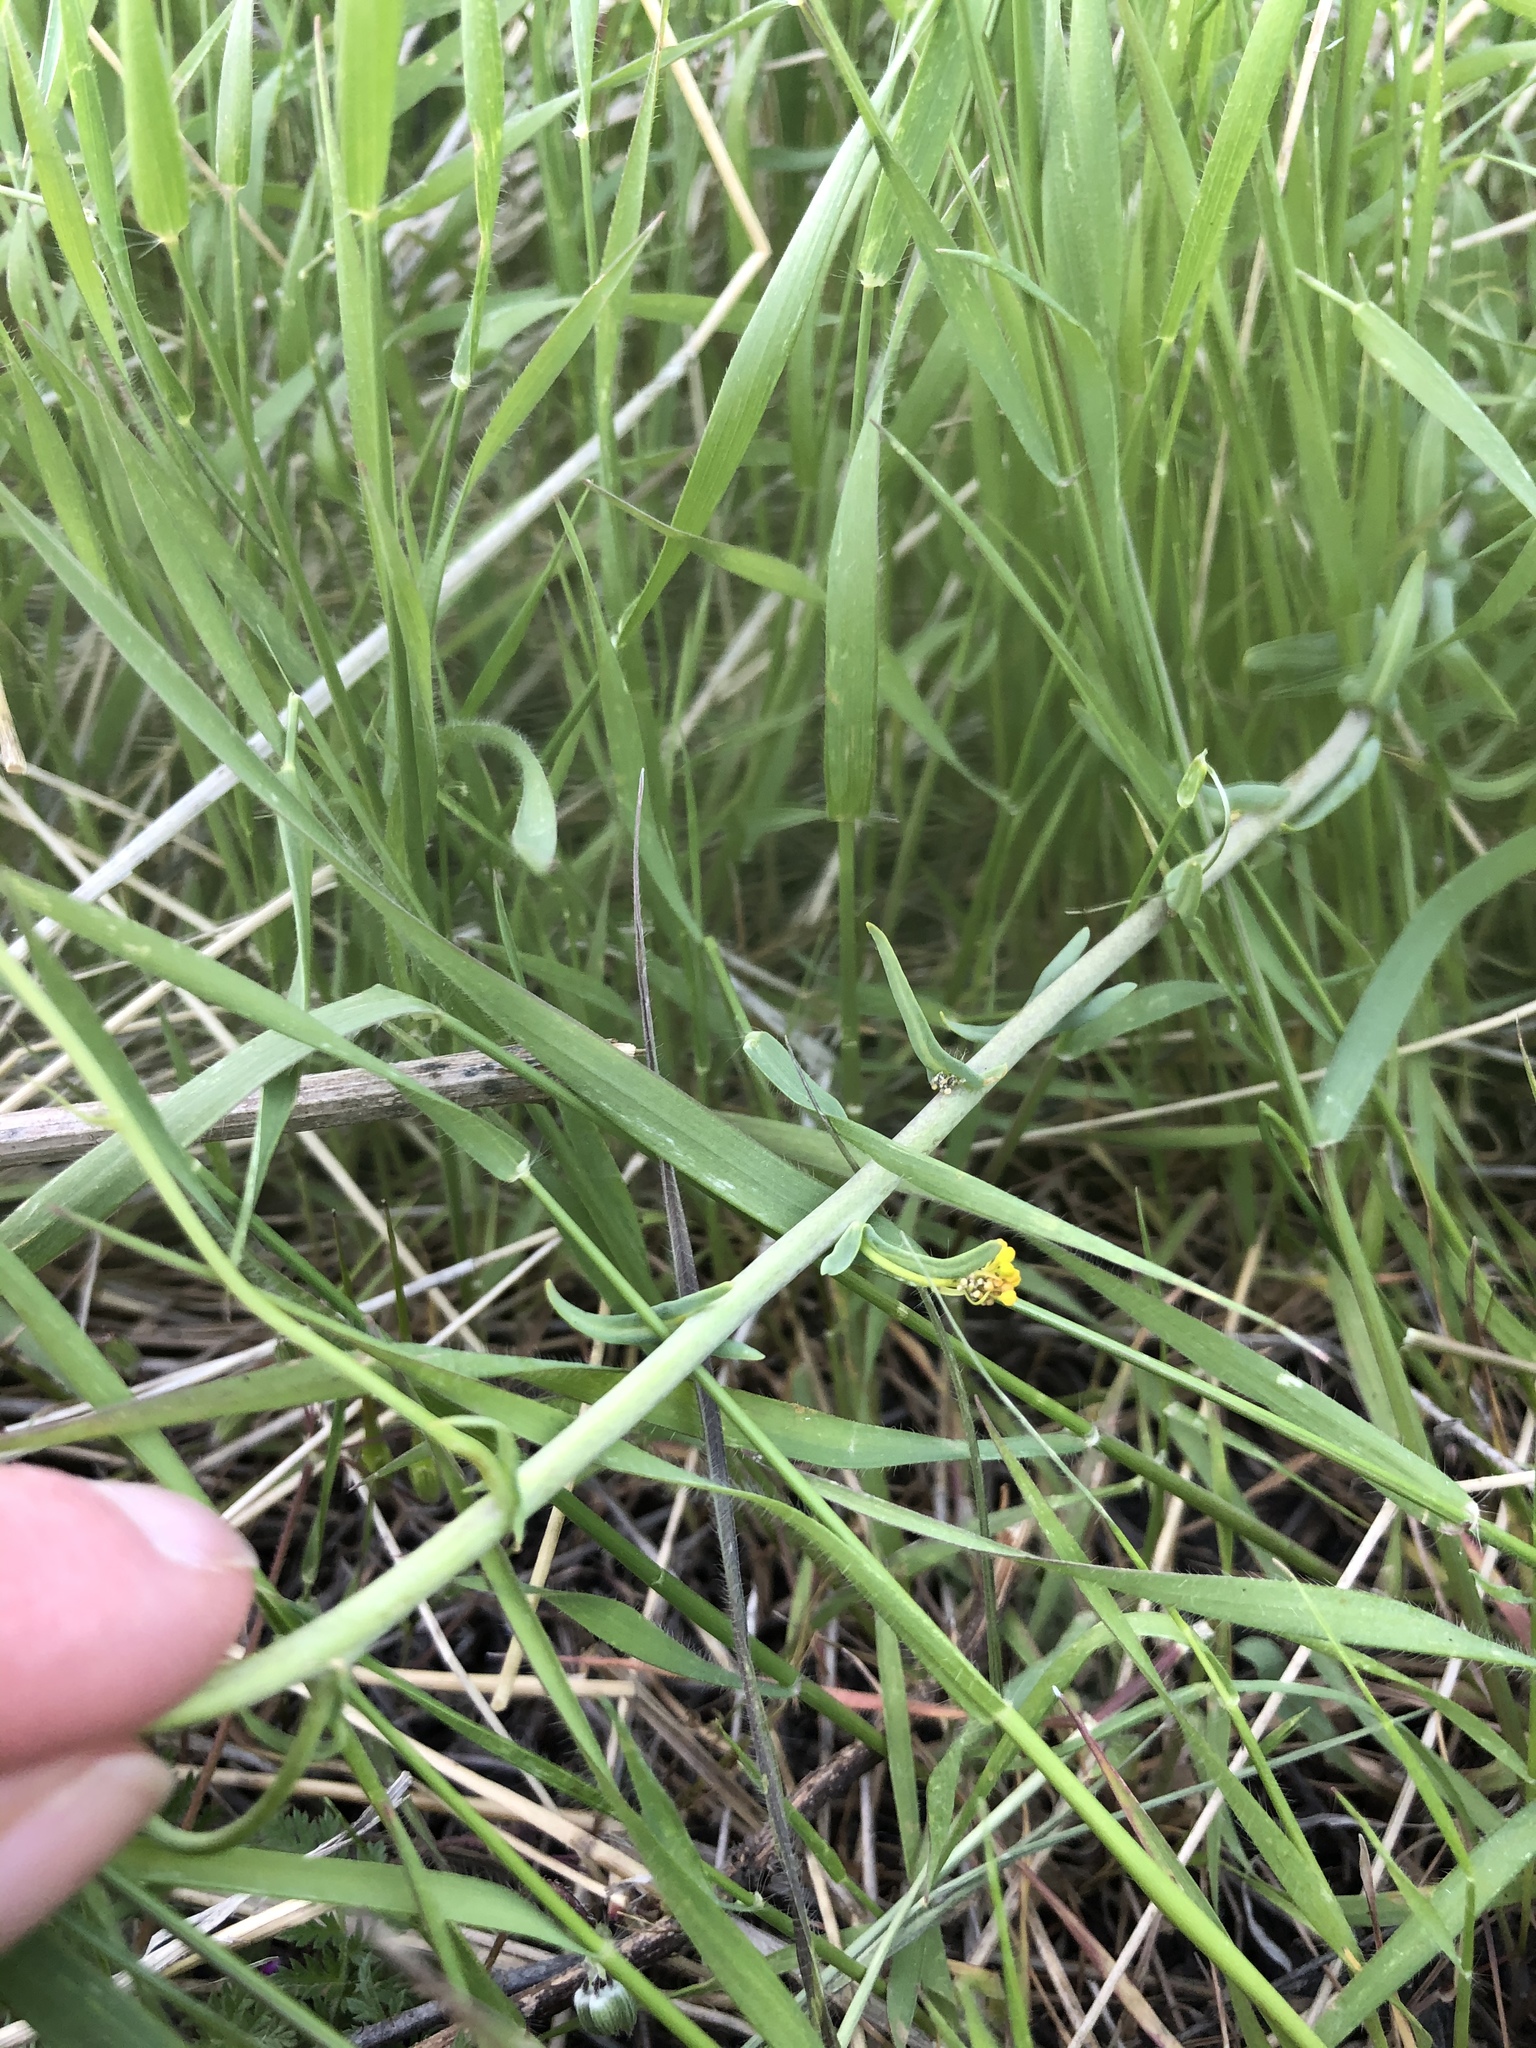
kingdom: Plantae
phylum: Tracheophyta
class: Magnoliopsida
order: Brassicales
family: Brassicaceae
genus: Isatis
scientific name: Isatis tinctoria
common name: Woad
